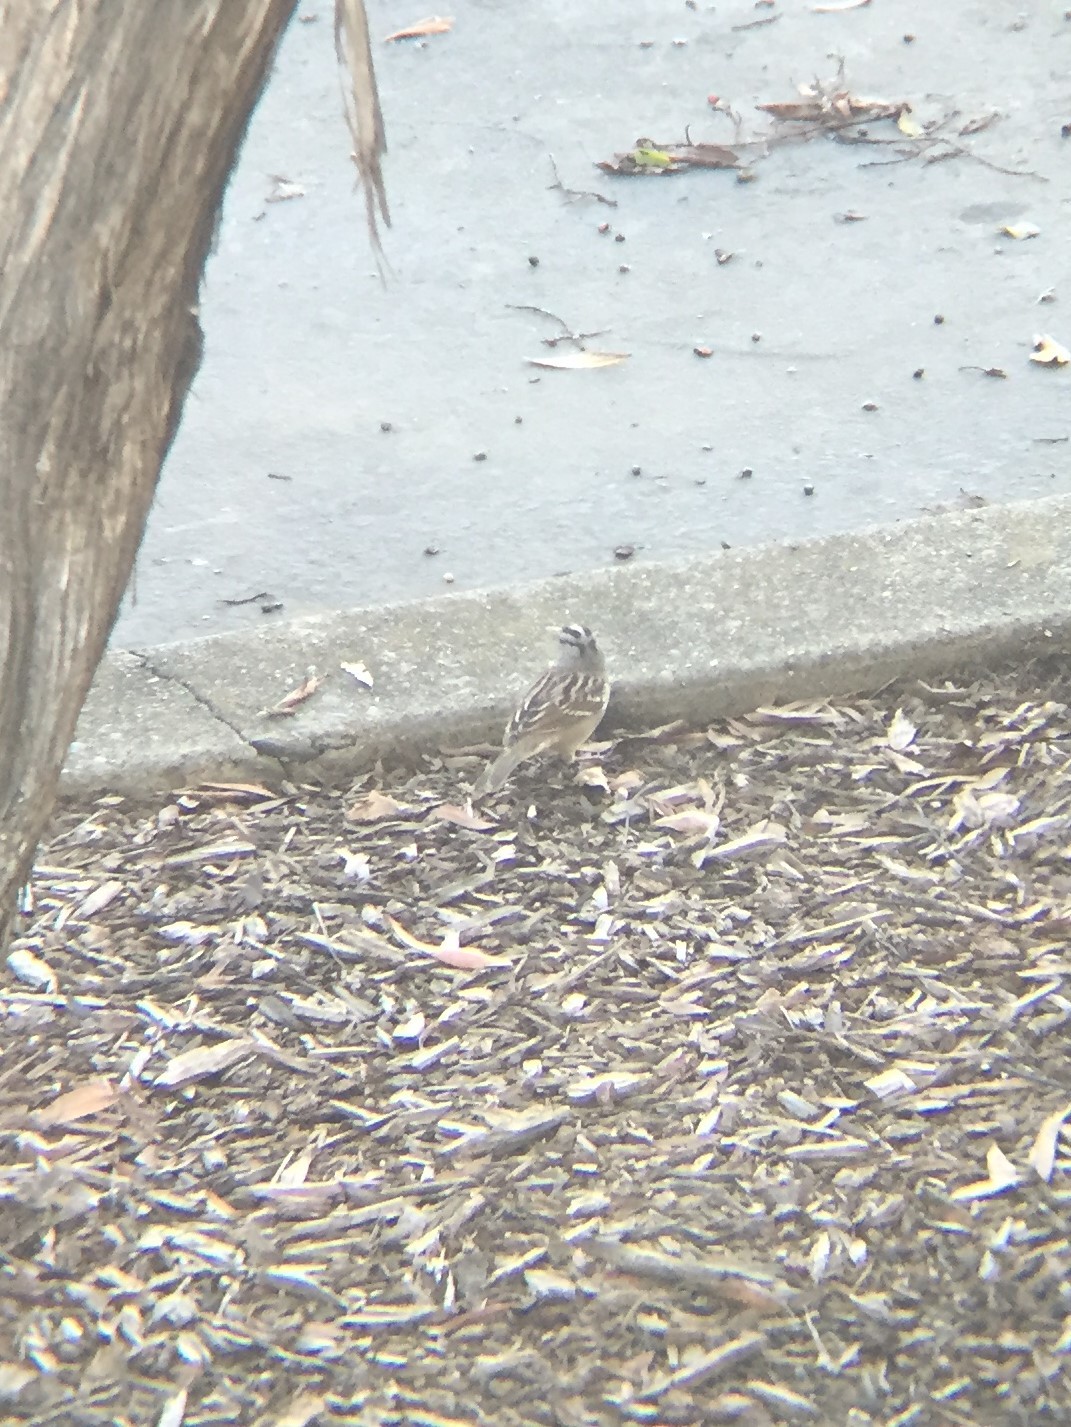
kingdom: Animalia
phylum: Chordata
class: Aves
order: Passeriformes
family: Passerellidae
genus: Zonotrichia
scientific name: Zonotrichia leucophrys
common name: White-crowned sparrow
